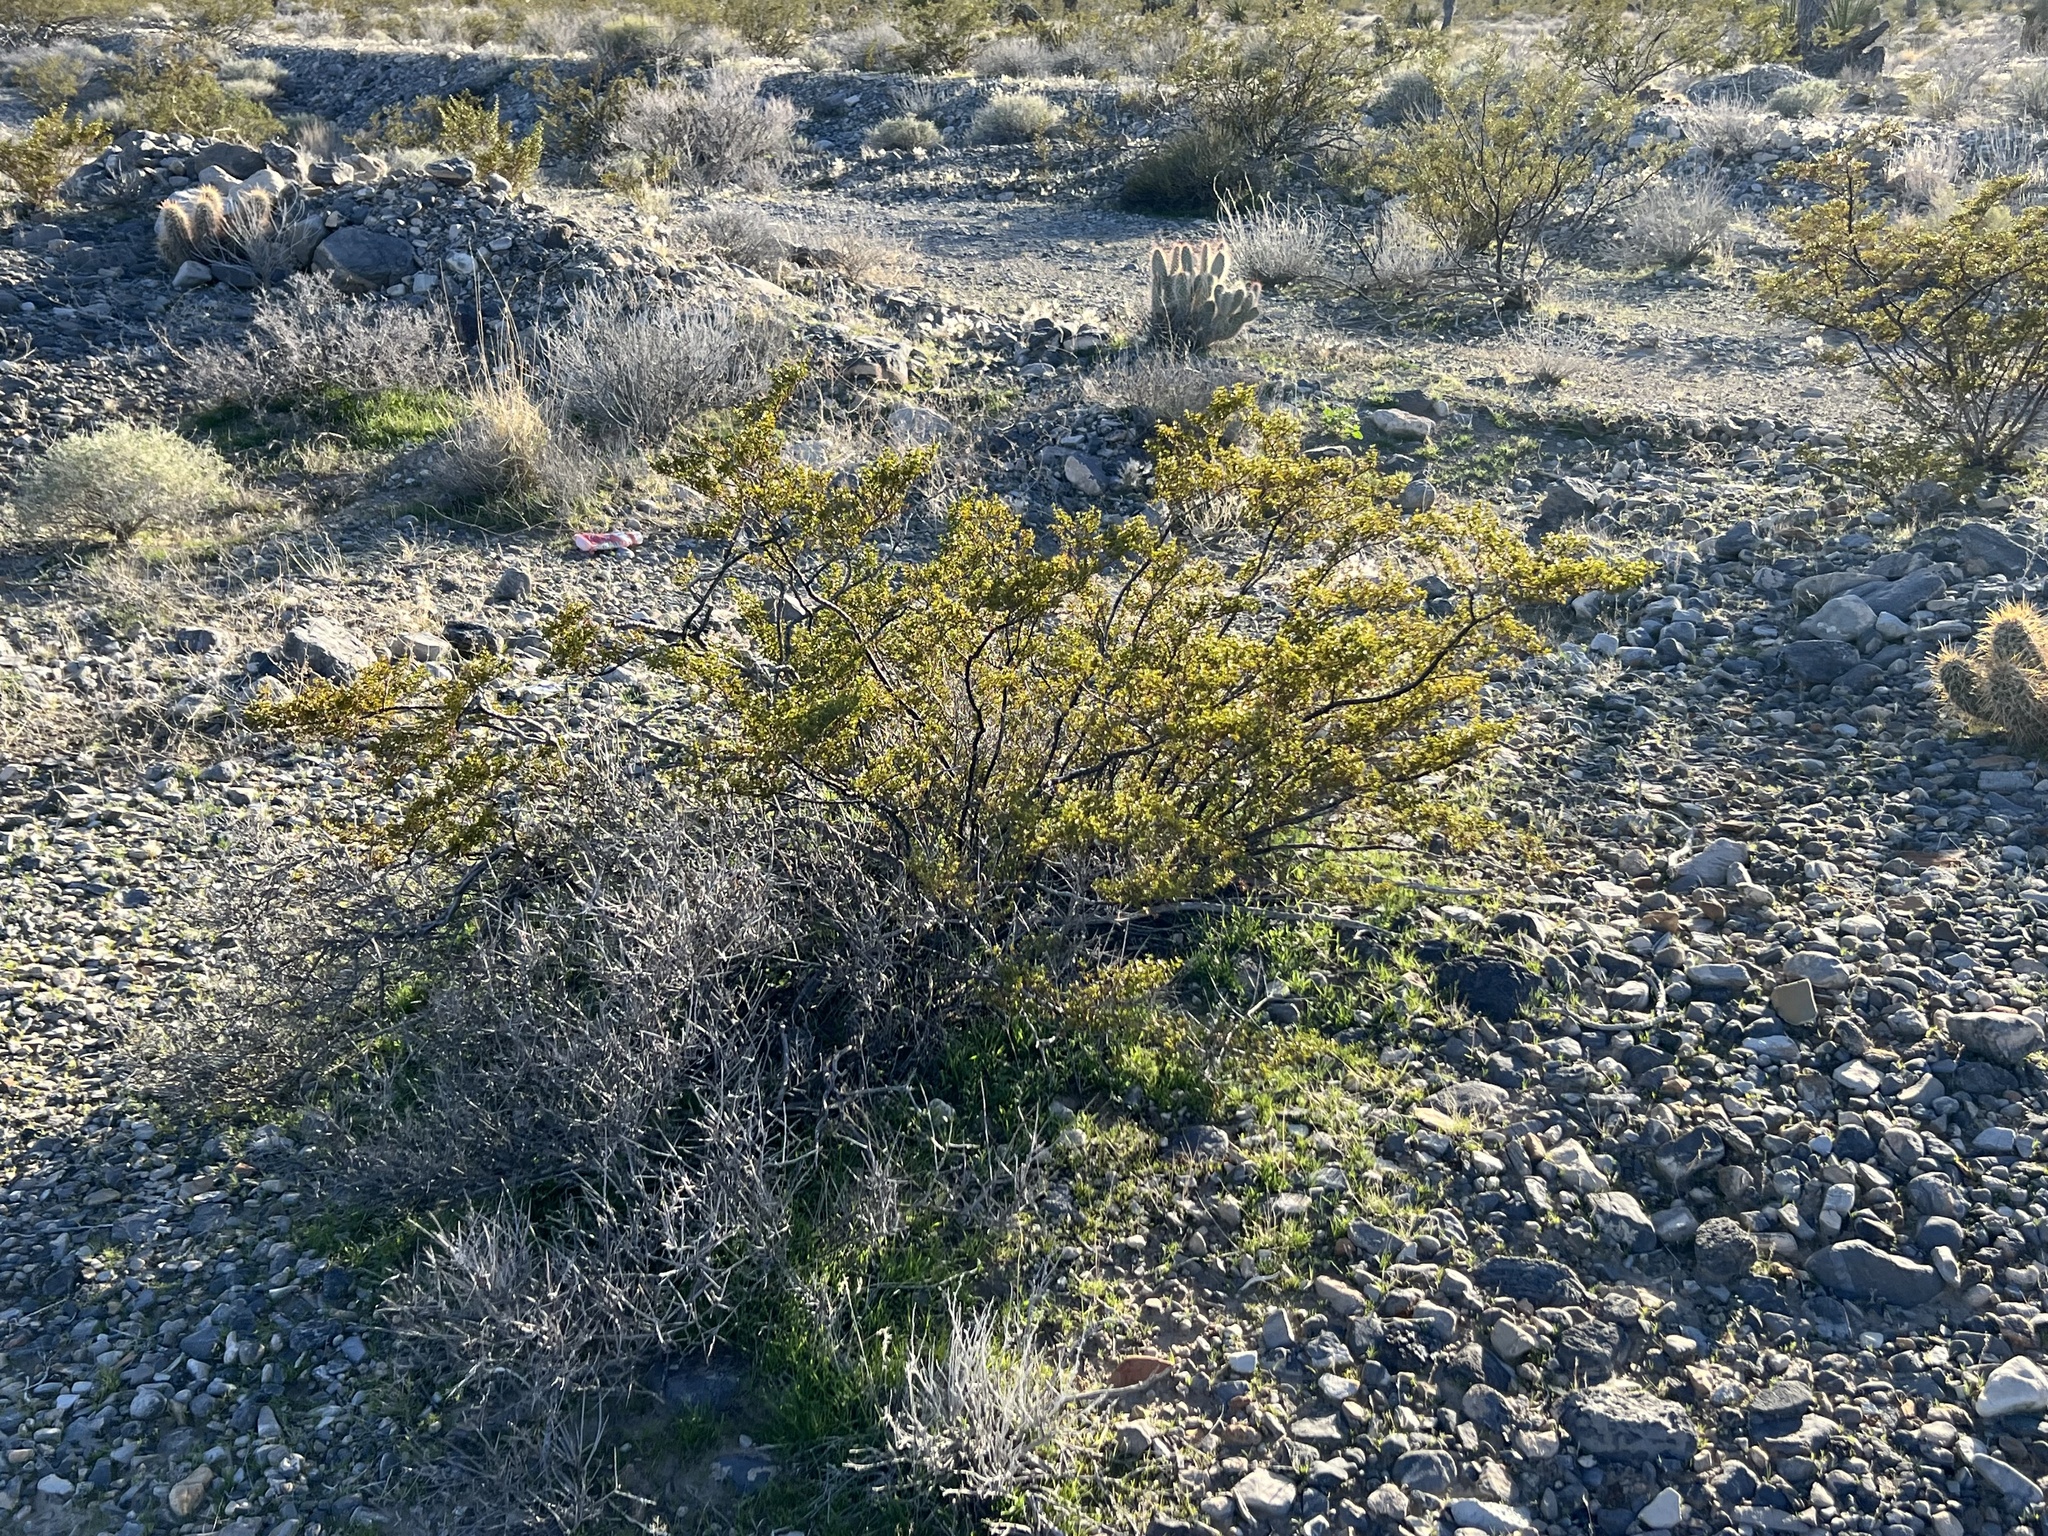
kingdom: Plantae
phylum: Tracheophyta
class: Magnoliopsida
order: Zygophyllales
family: Zygophyllaceae
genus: Larrea
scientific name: Larrea tridentata
